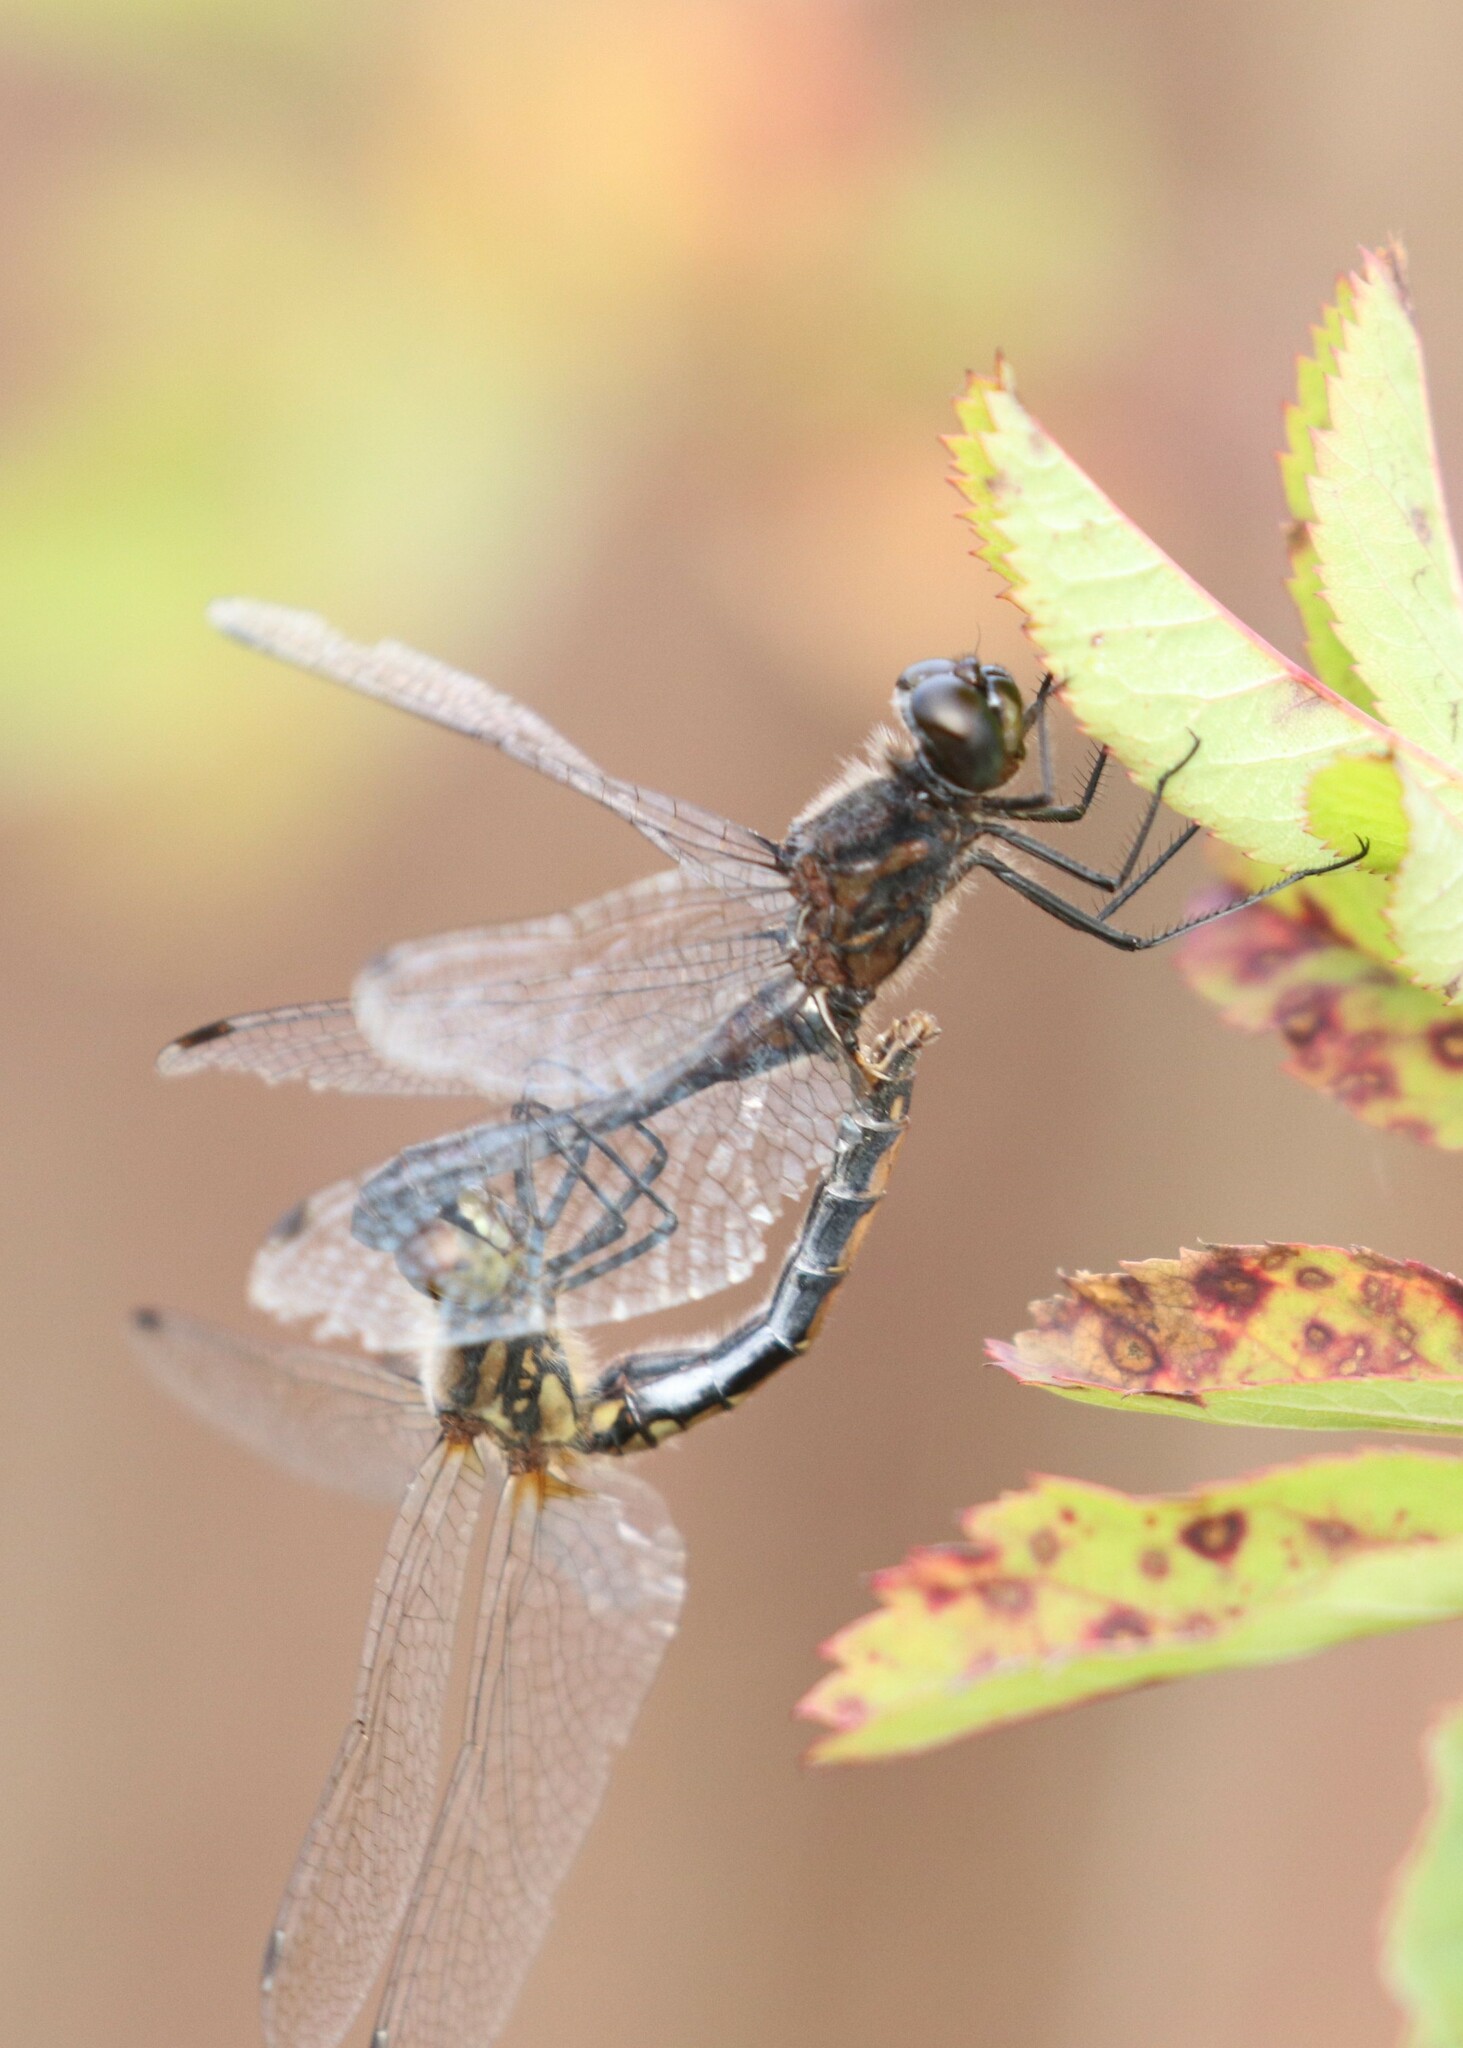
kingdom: Animalia
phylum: Arthropoda
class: Insecta
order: Odonata
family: Libellulidae
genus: Sympetrum
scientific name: Sympetrum danae
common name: Black darter
